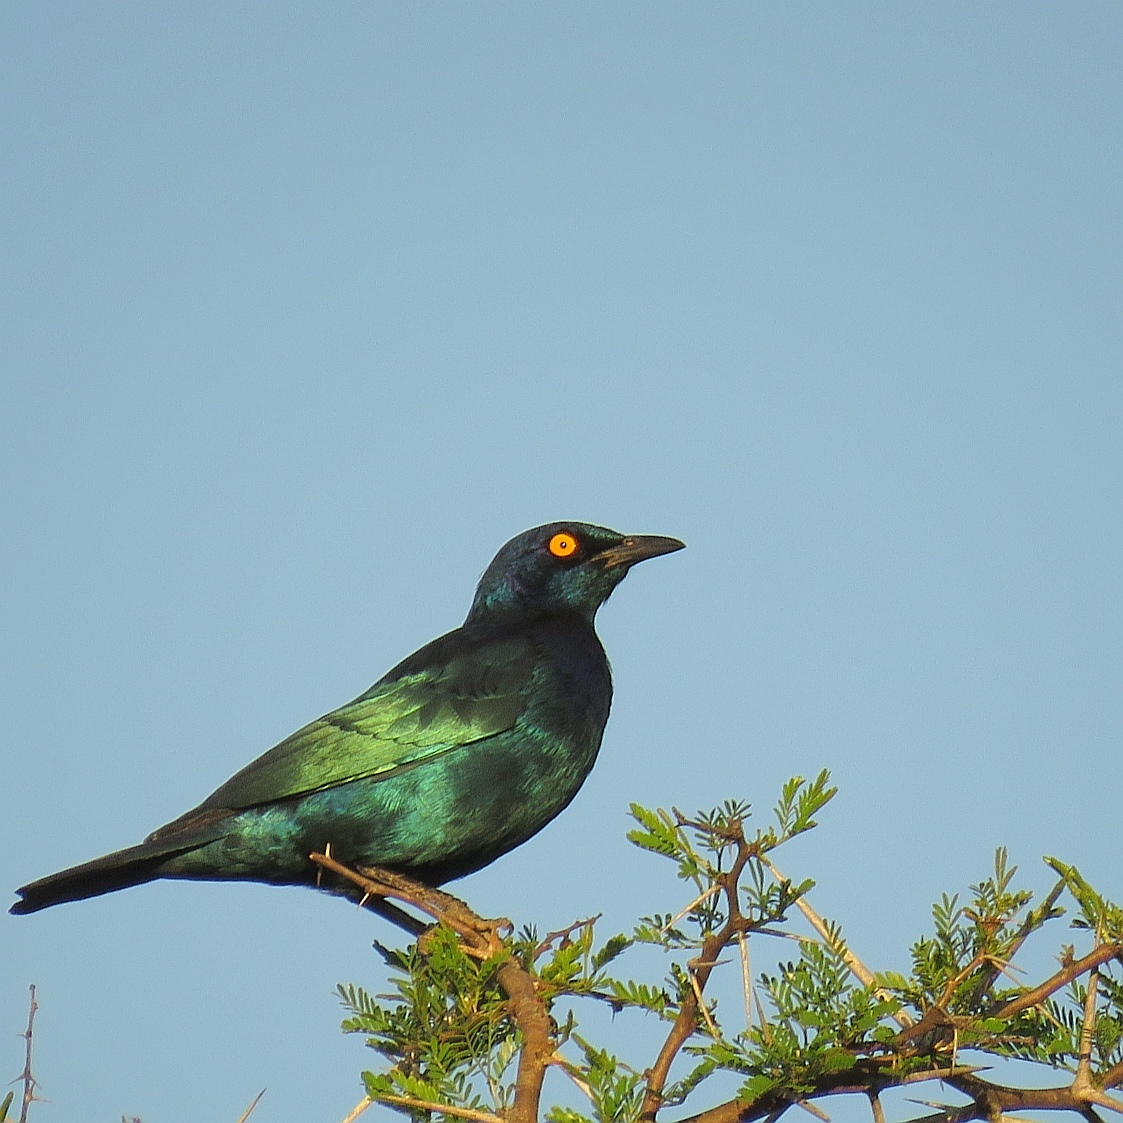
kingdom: Animalia
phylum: Chordata
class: Aves
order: Passeriformes
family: Sturnidae
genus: Lamprotornis
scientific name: Lamprotornis nitens
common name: Cape starling
